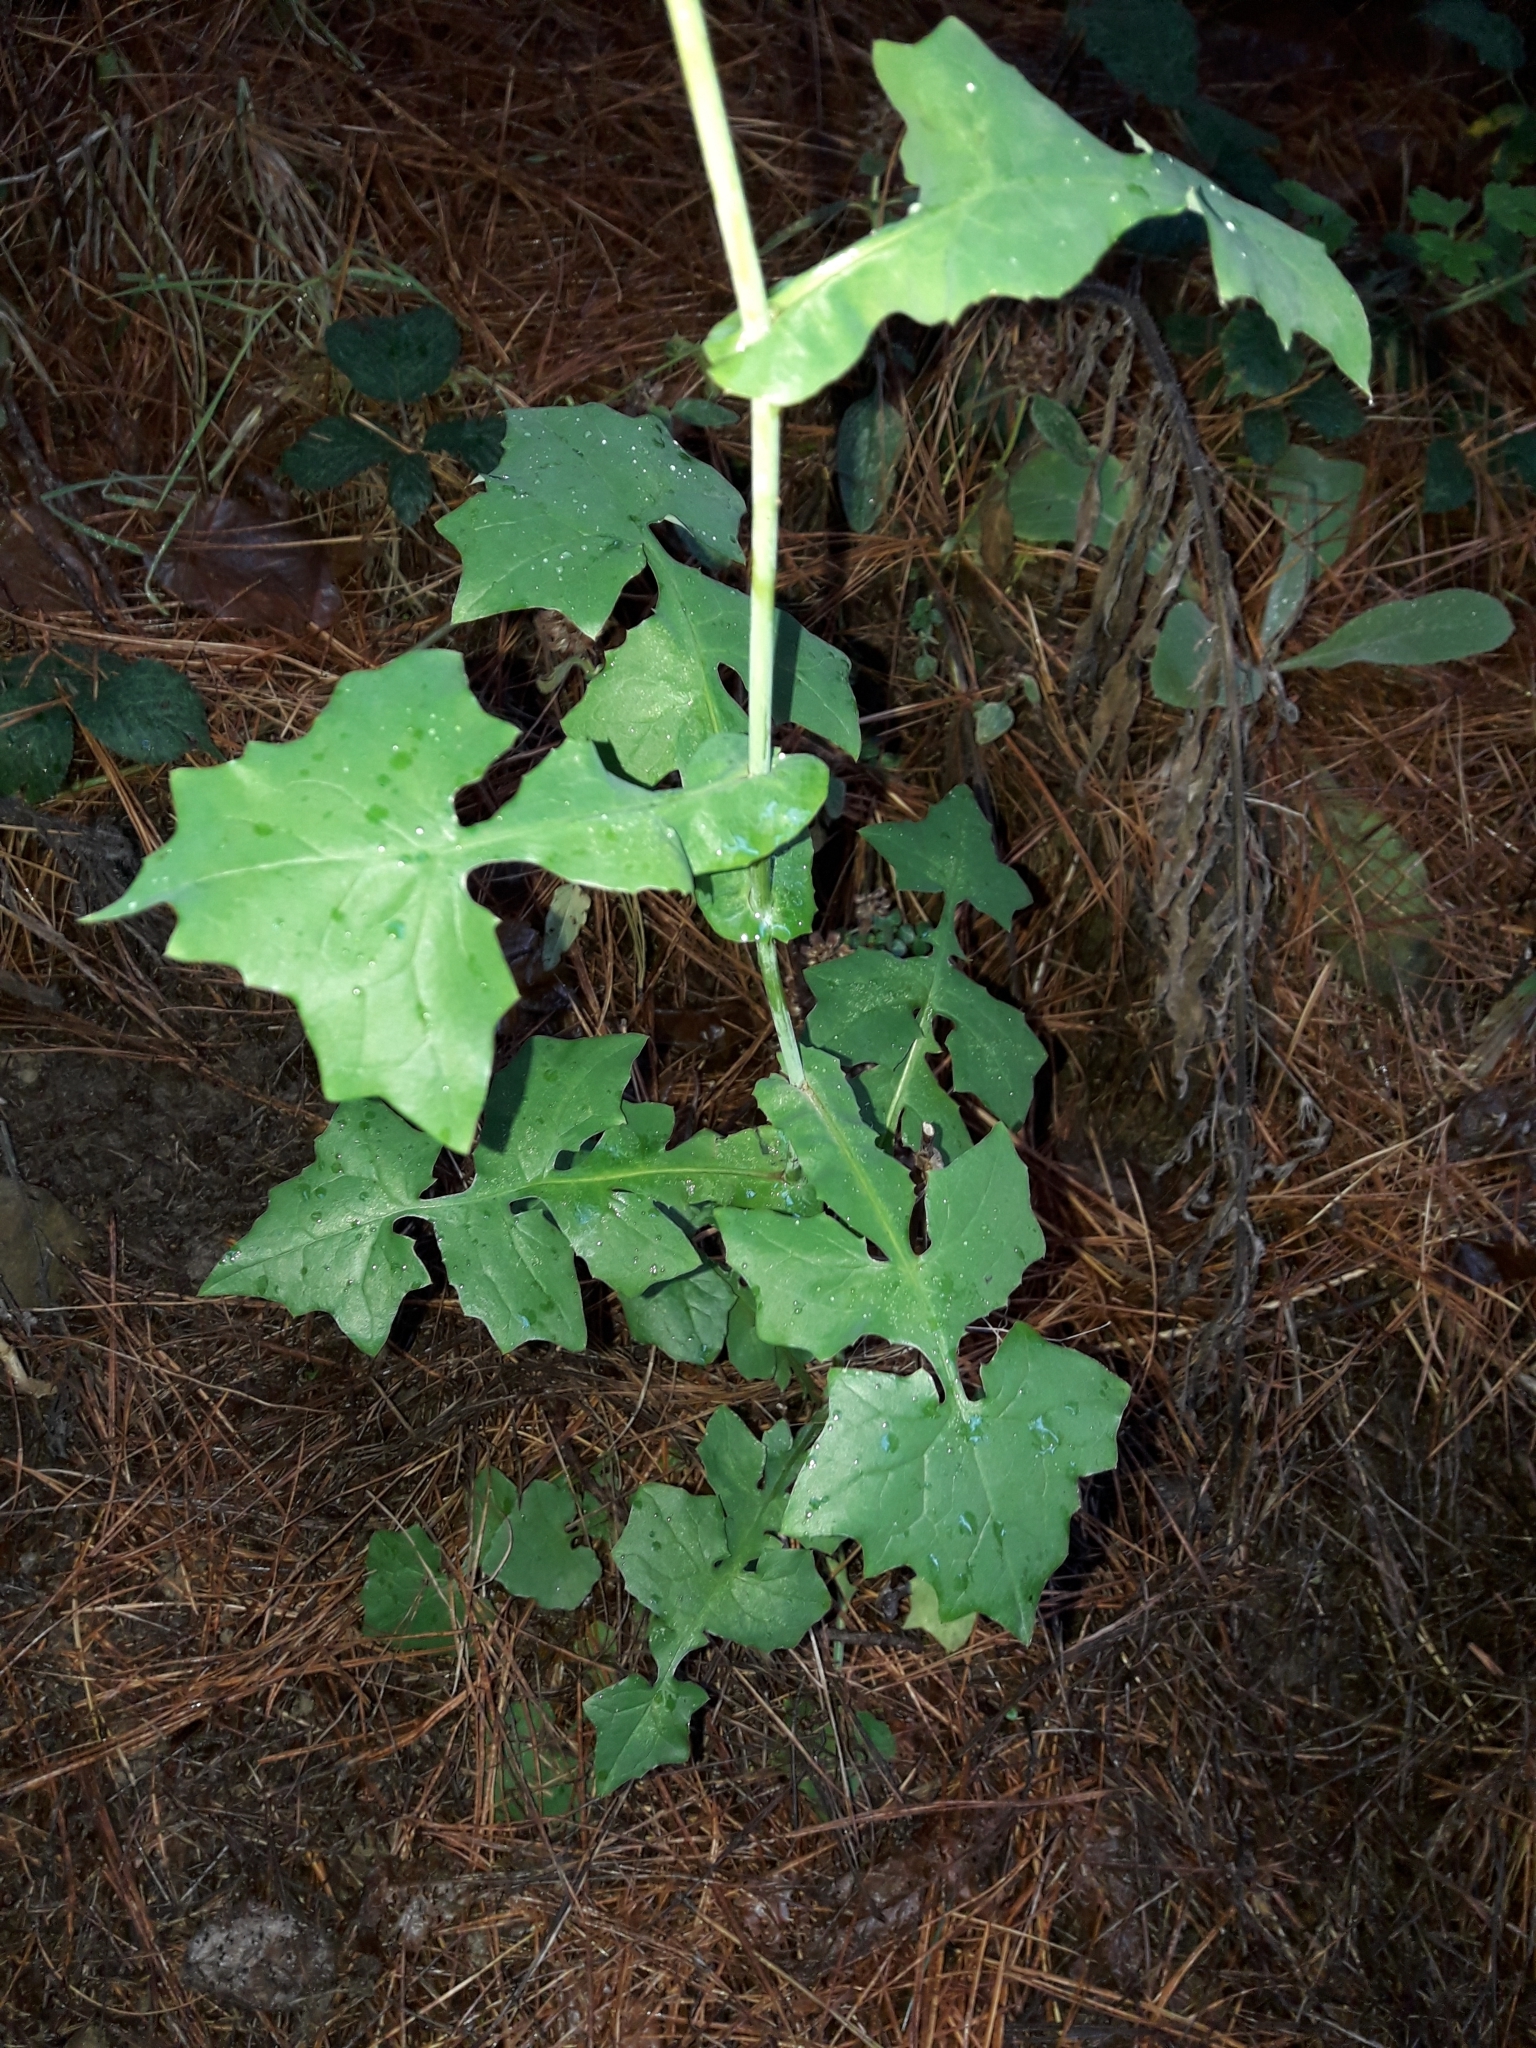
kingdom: Plantae
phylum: Tracheophyta
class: Magnoliopsida
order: Asterales
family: Asteraceae
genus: Mycelis
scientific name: Mycelis muralis
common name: Wall lettuce
